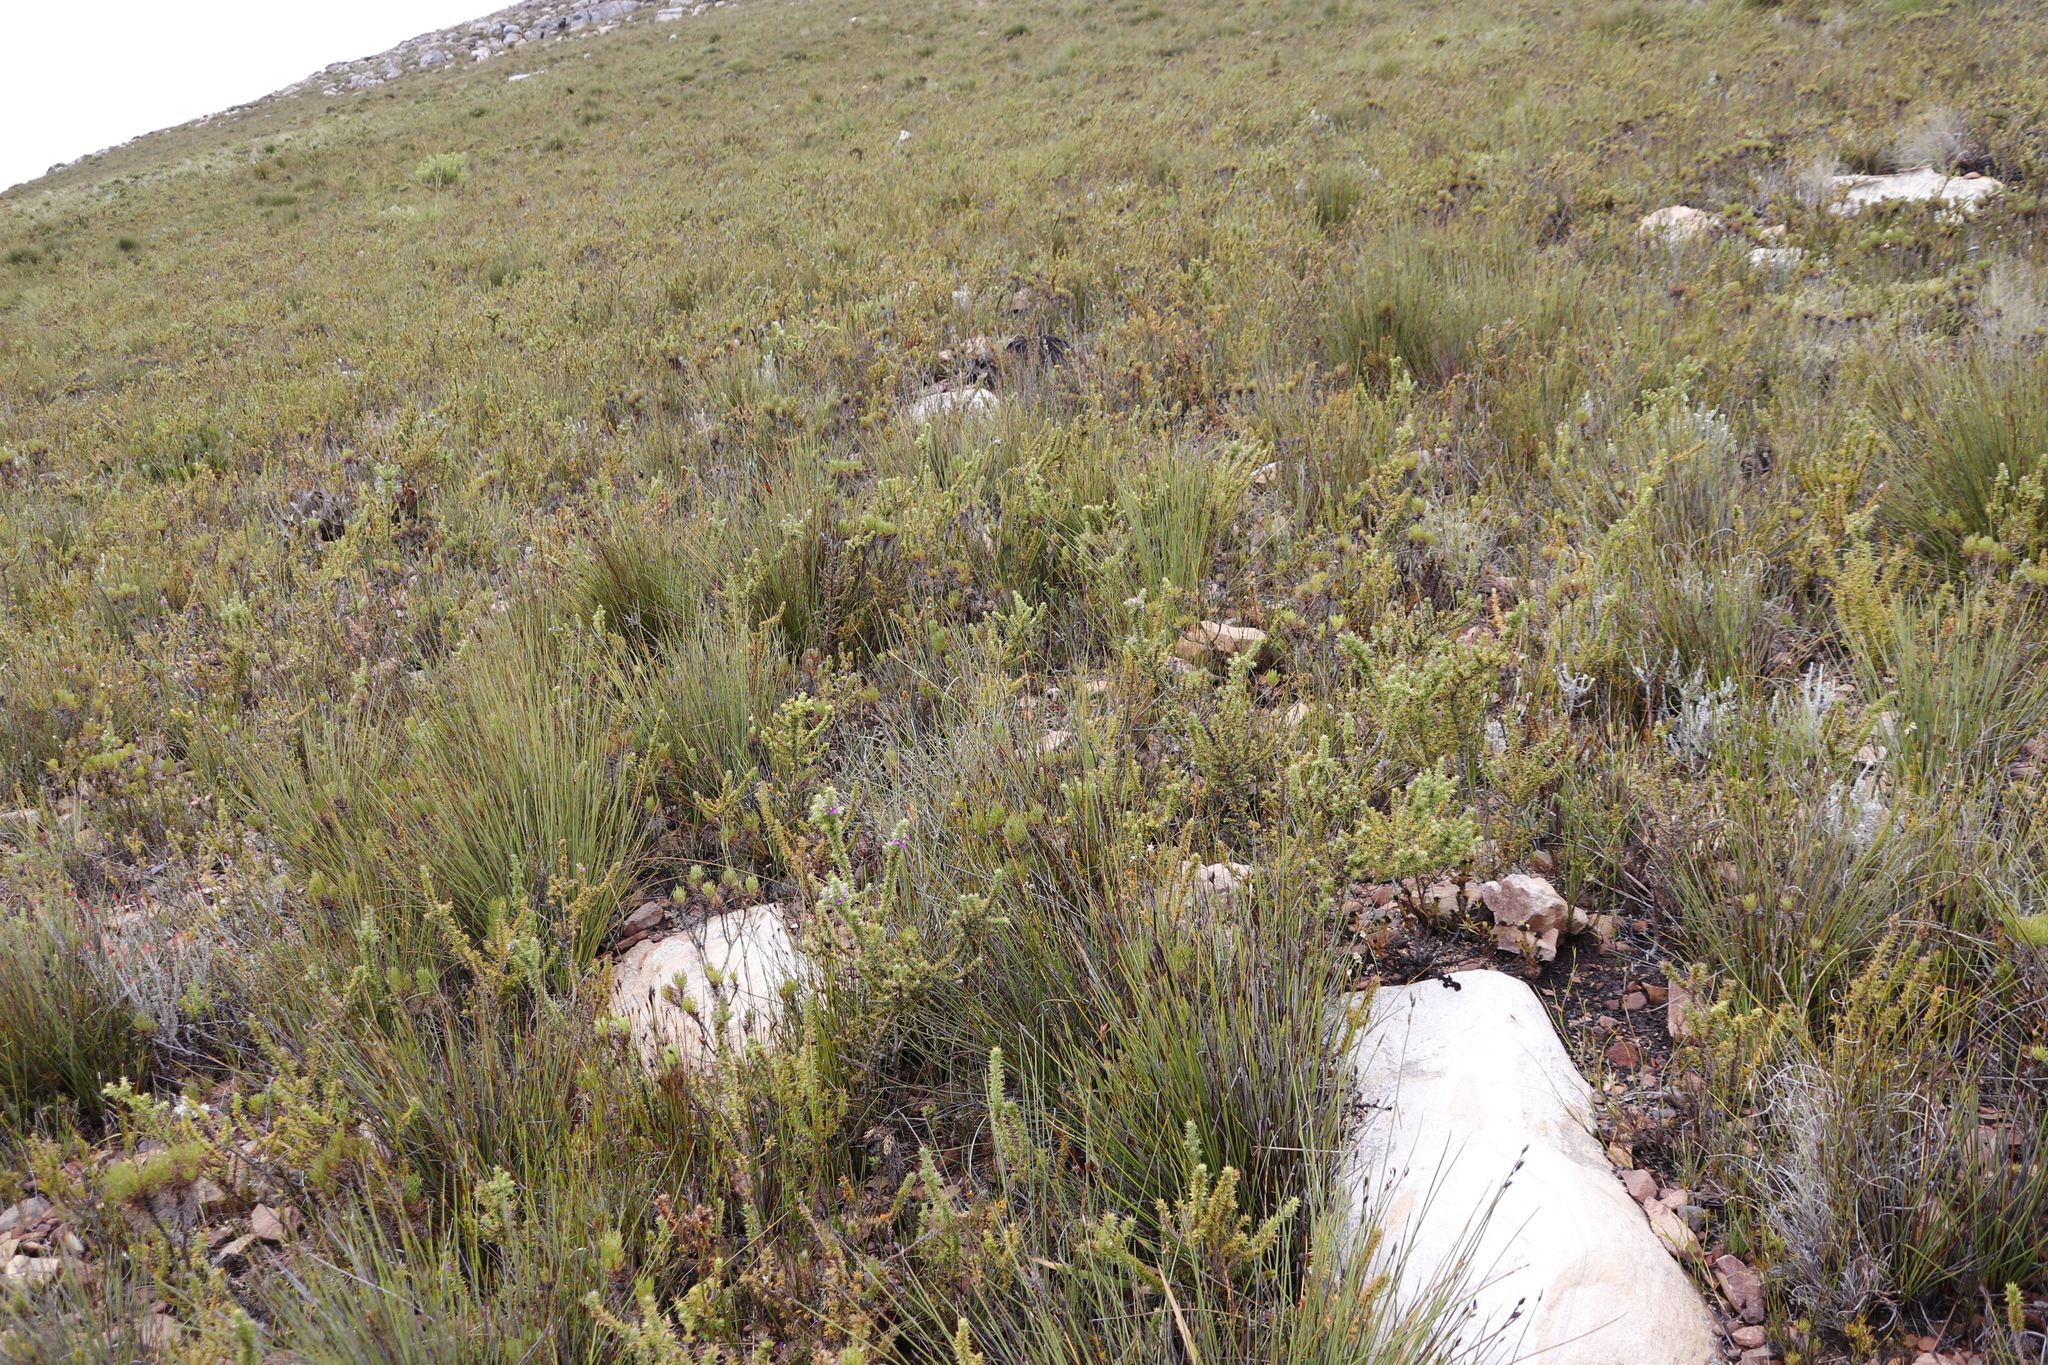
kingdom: Plantae
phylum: Tracheophyta
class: Magnoliopsida
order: Fabales
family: Polygalaceae
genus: Muraltia
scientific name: Muraltia heisteria
